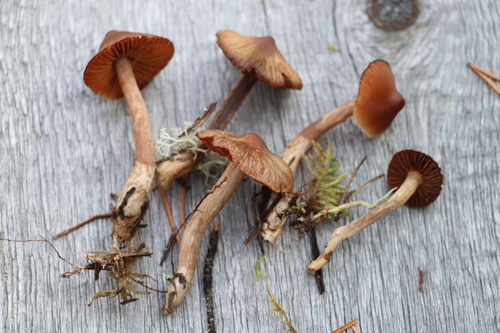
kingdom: Fungi
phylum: Basidiomycota
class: Agaricomycetes
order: Agaricales
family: Cortinariaceae
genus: Cortinarius
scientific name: Cortinarius glandicolor
